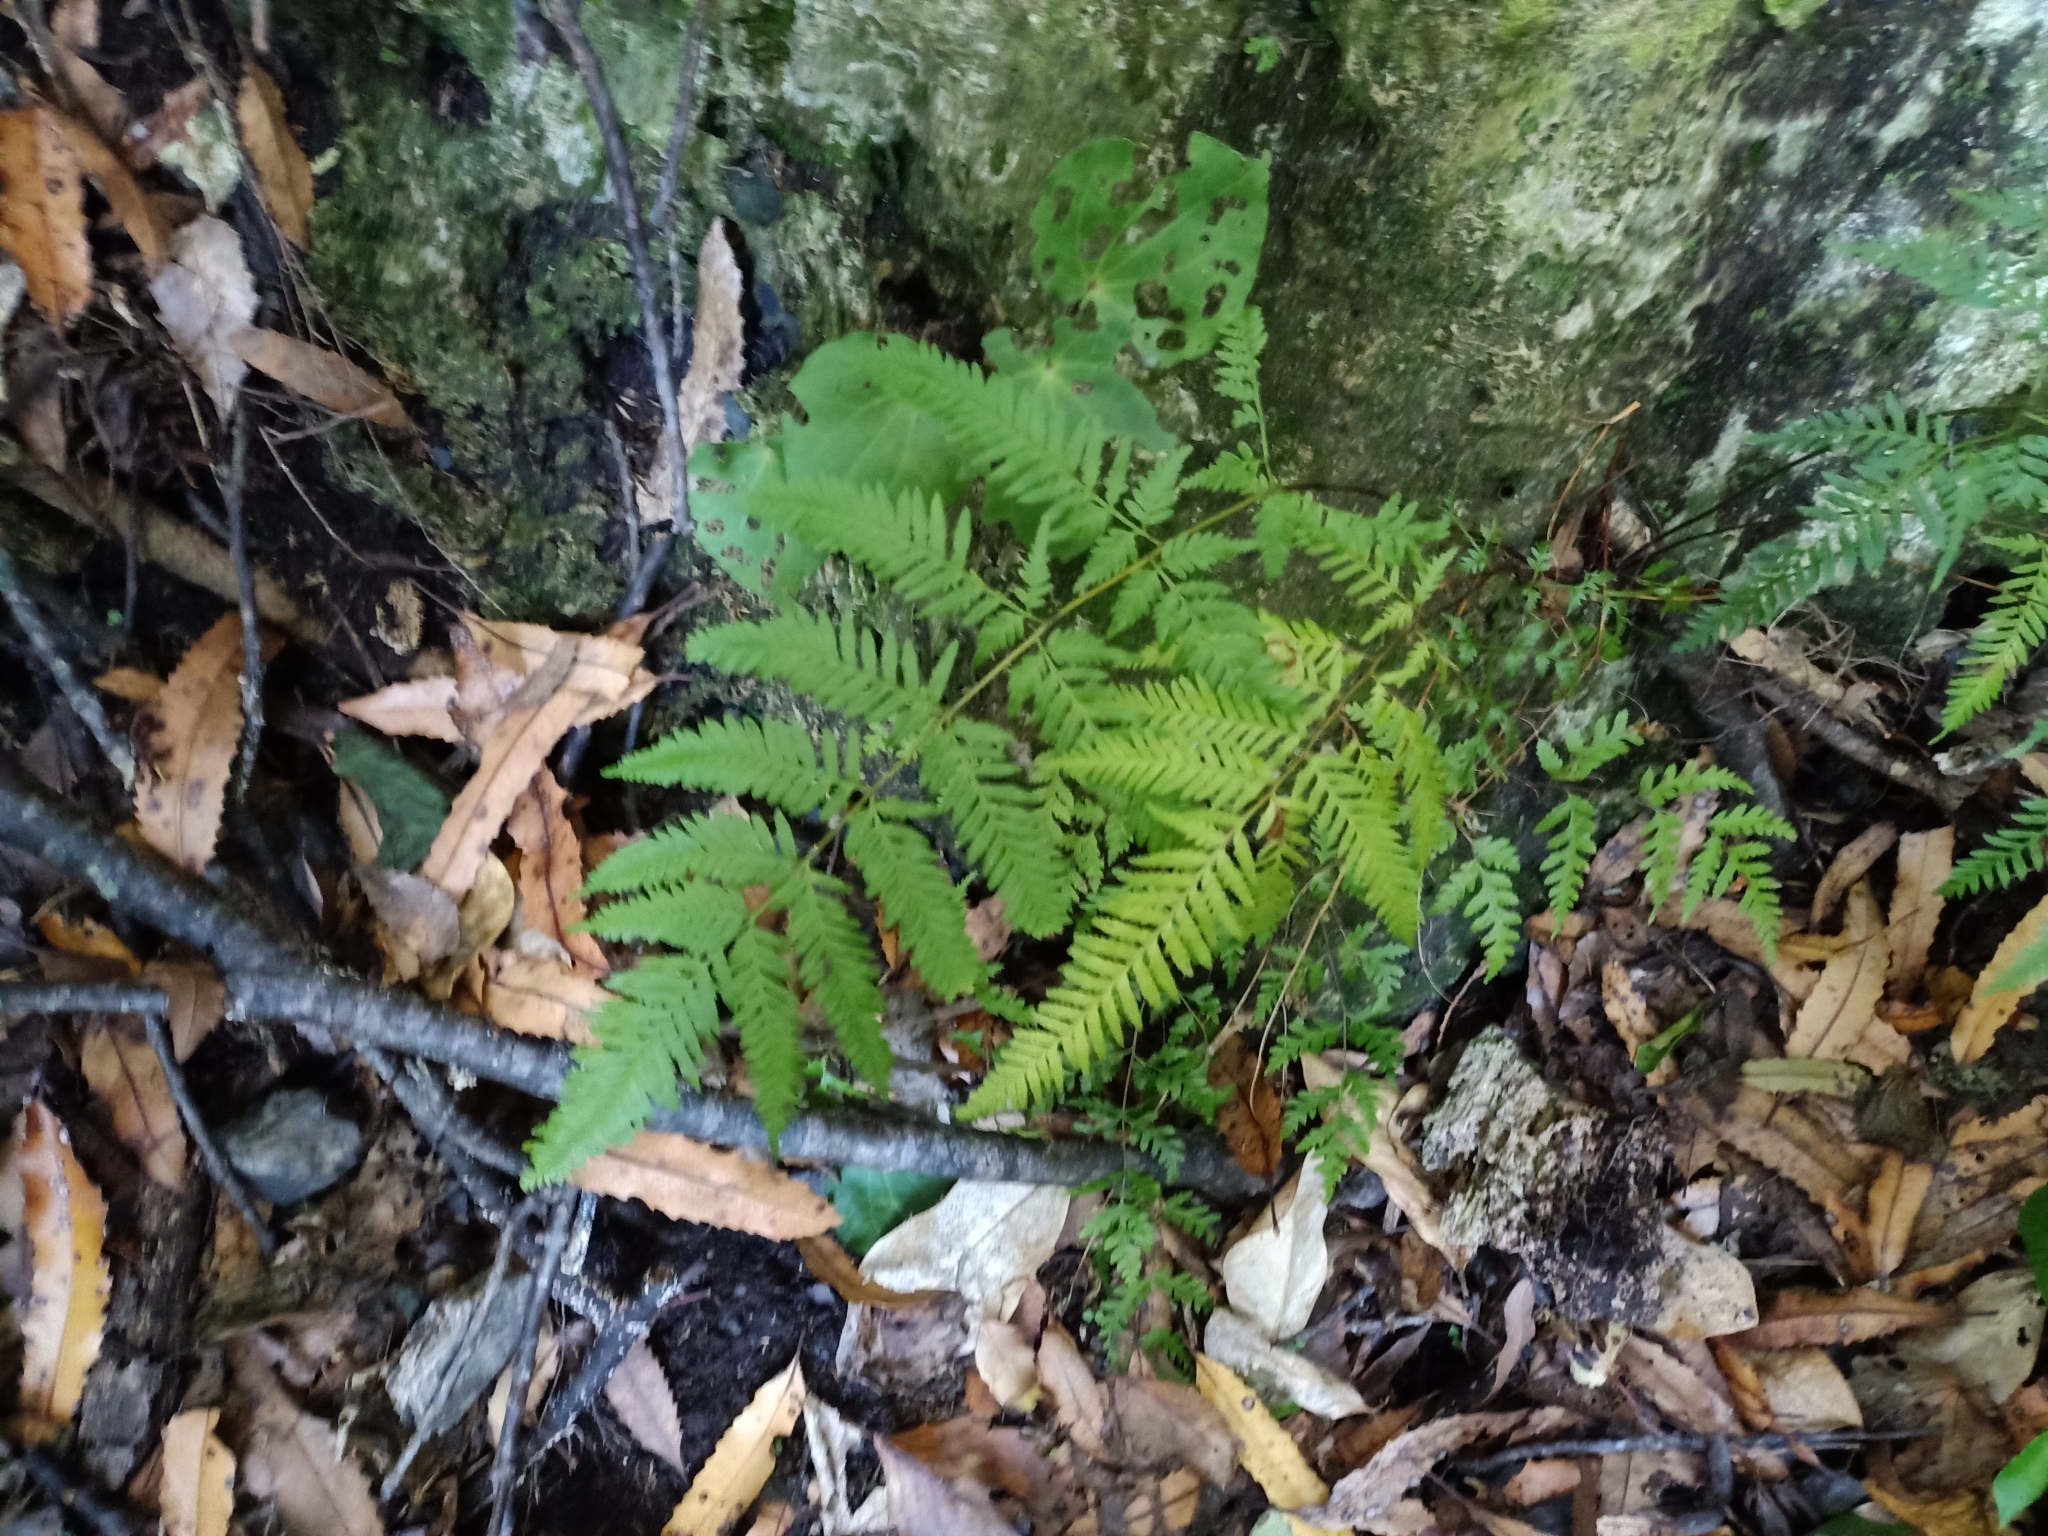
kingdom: Plantae
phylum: Tracheophyta
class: Polypodiopsida
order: Polypodiales
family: Pteridaceae
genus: Pteris
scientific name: Pteris tremula
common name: Australian brake
